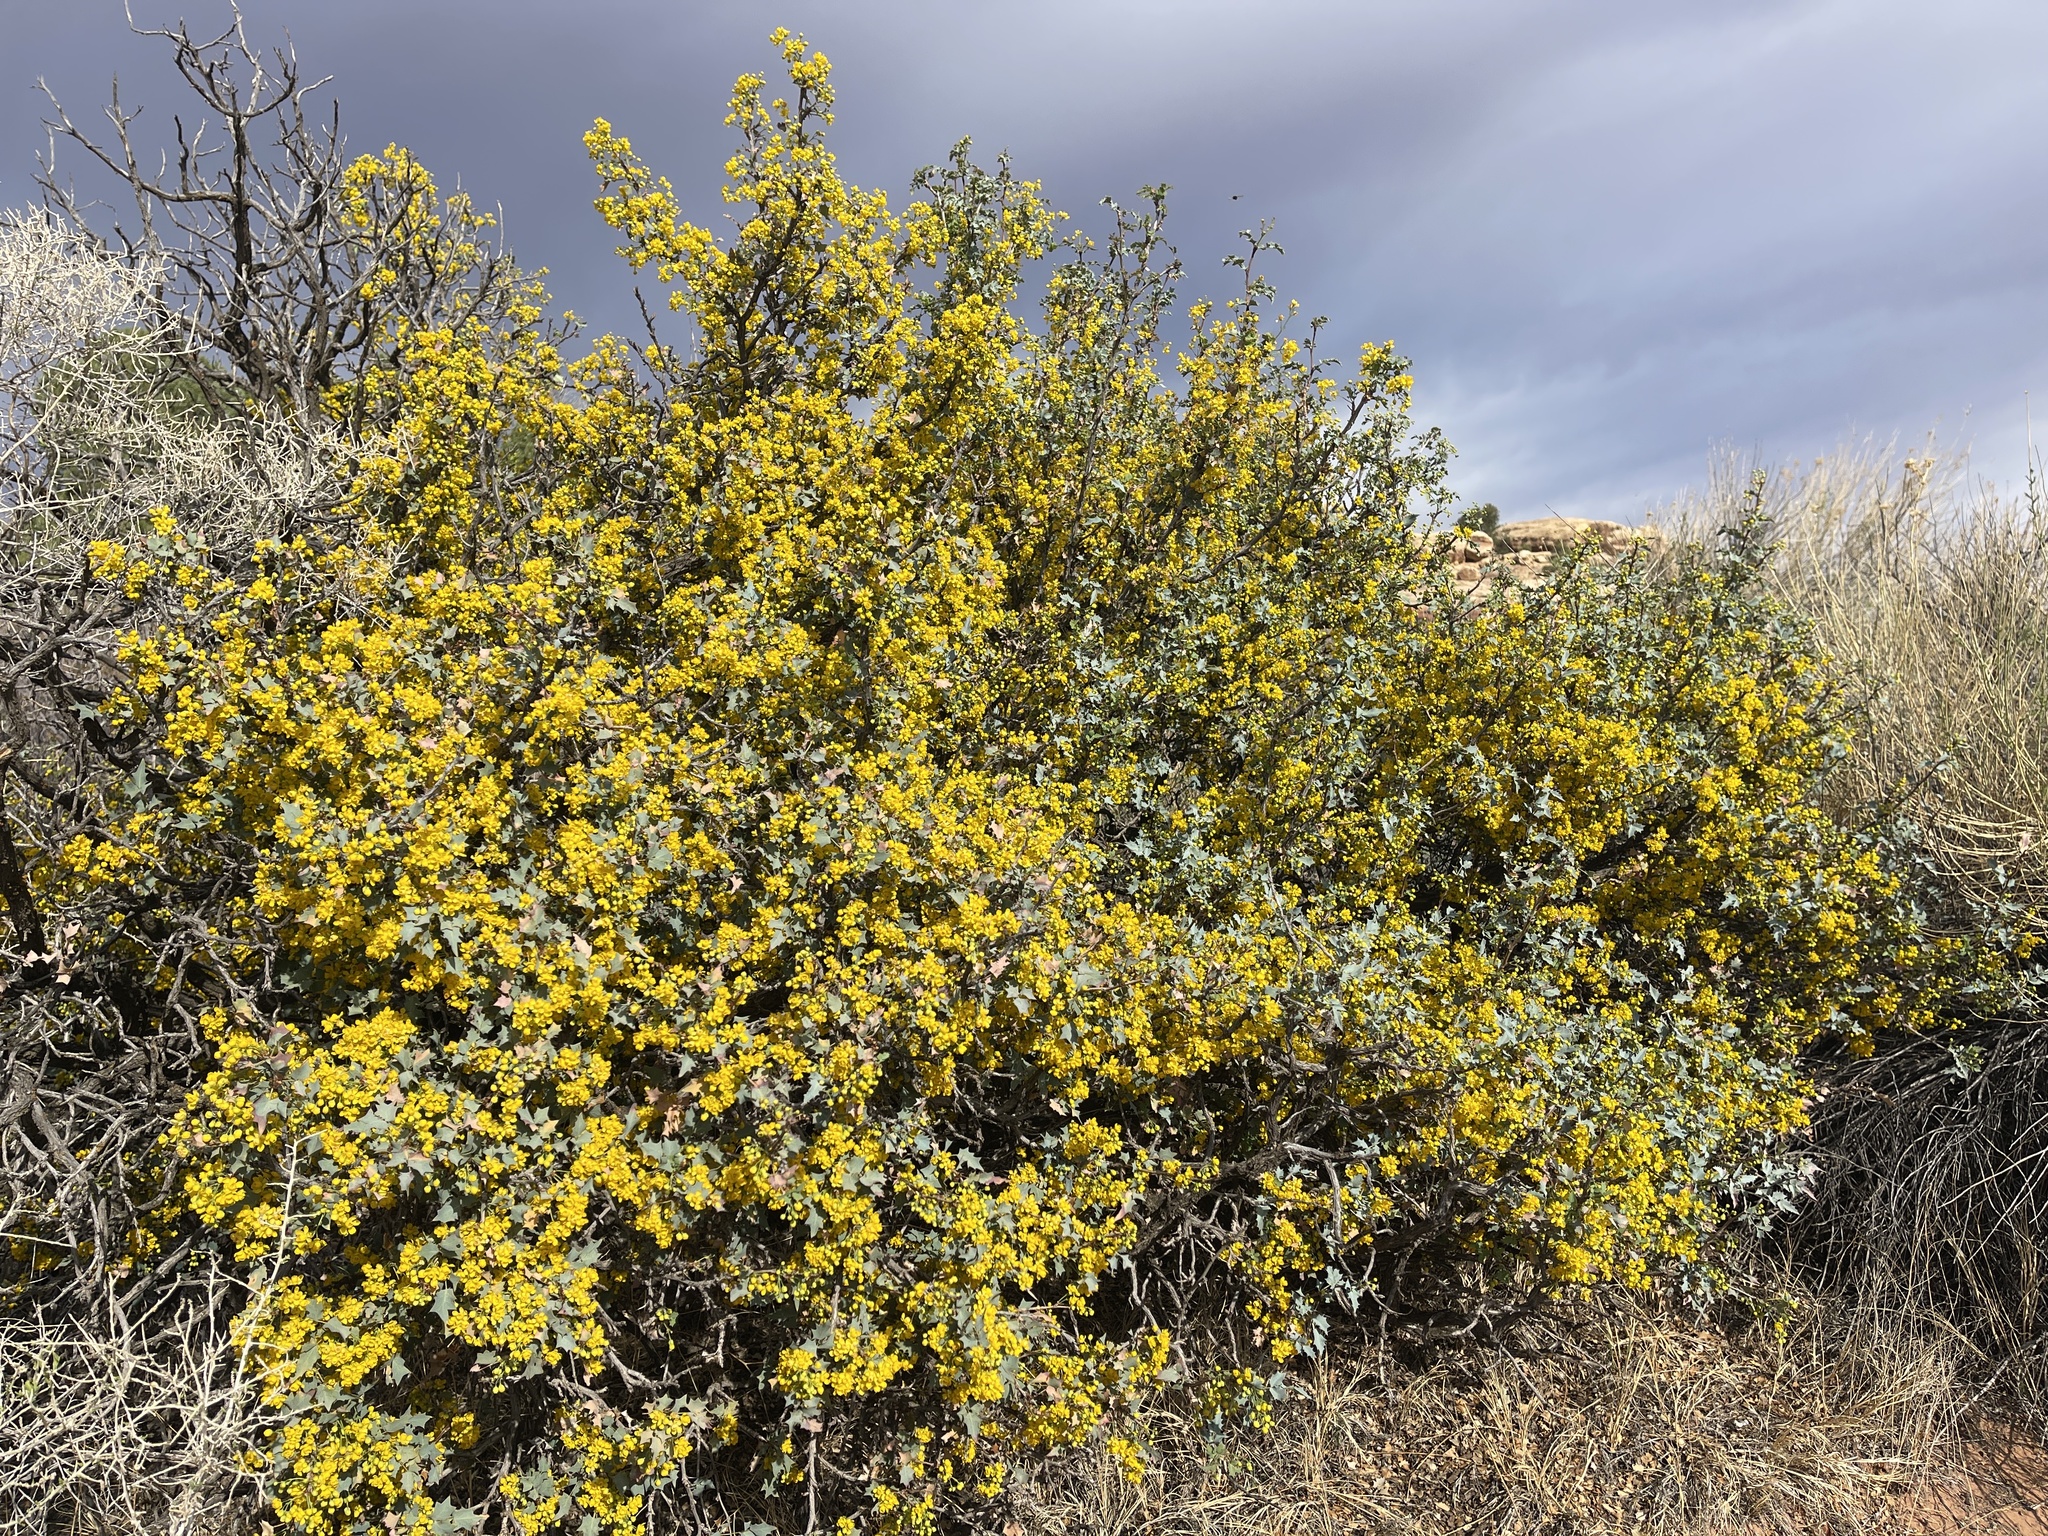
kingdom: Plantae
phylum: Tracheophyta
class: Magnoliopsida
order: Ranunculales
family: Berberidaceae
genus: Alloberberis
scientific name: Alloberberis fremontii
